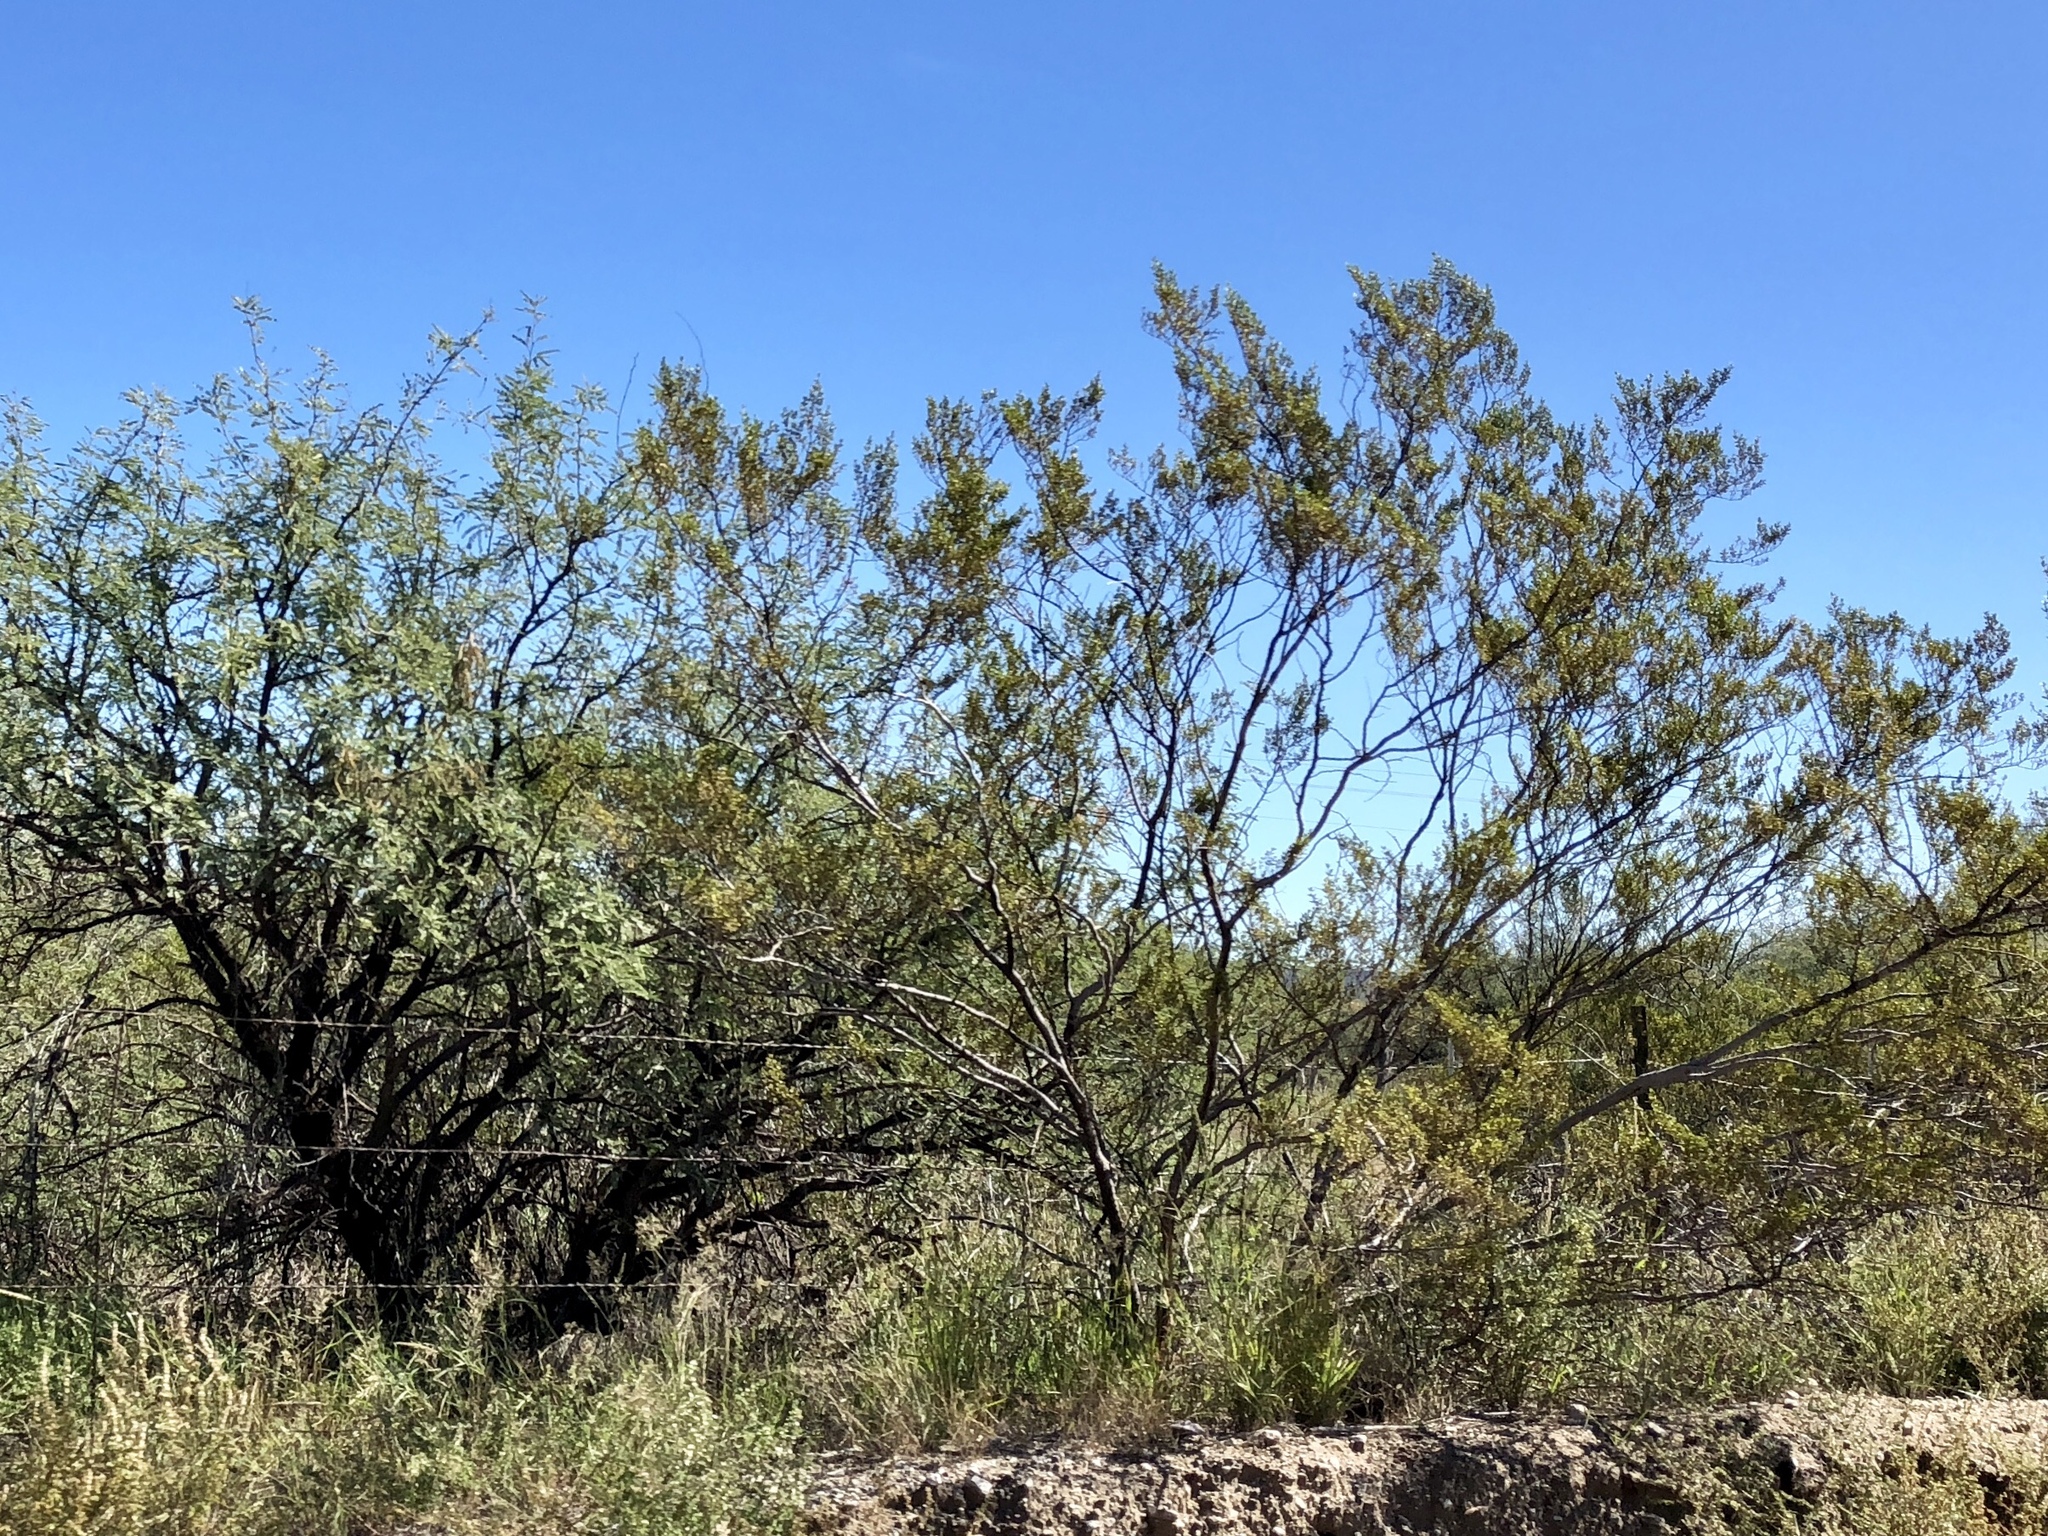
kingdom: Plantae
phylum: Tracheophyta
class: Magnoliopsida
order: Zygophyllales
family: Zygophyllaceae
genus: Larrea
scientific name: Larrea tridentata
